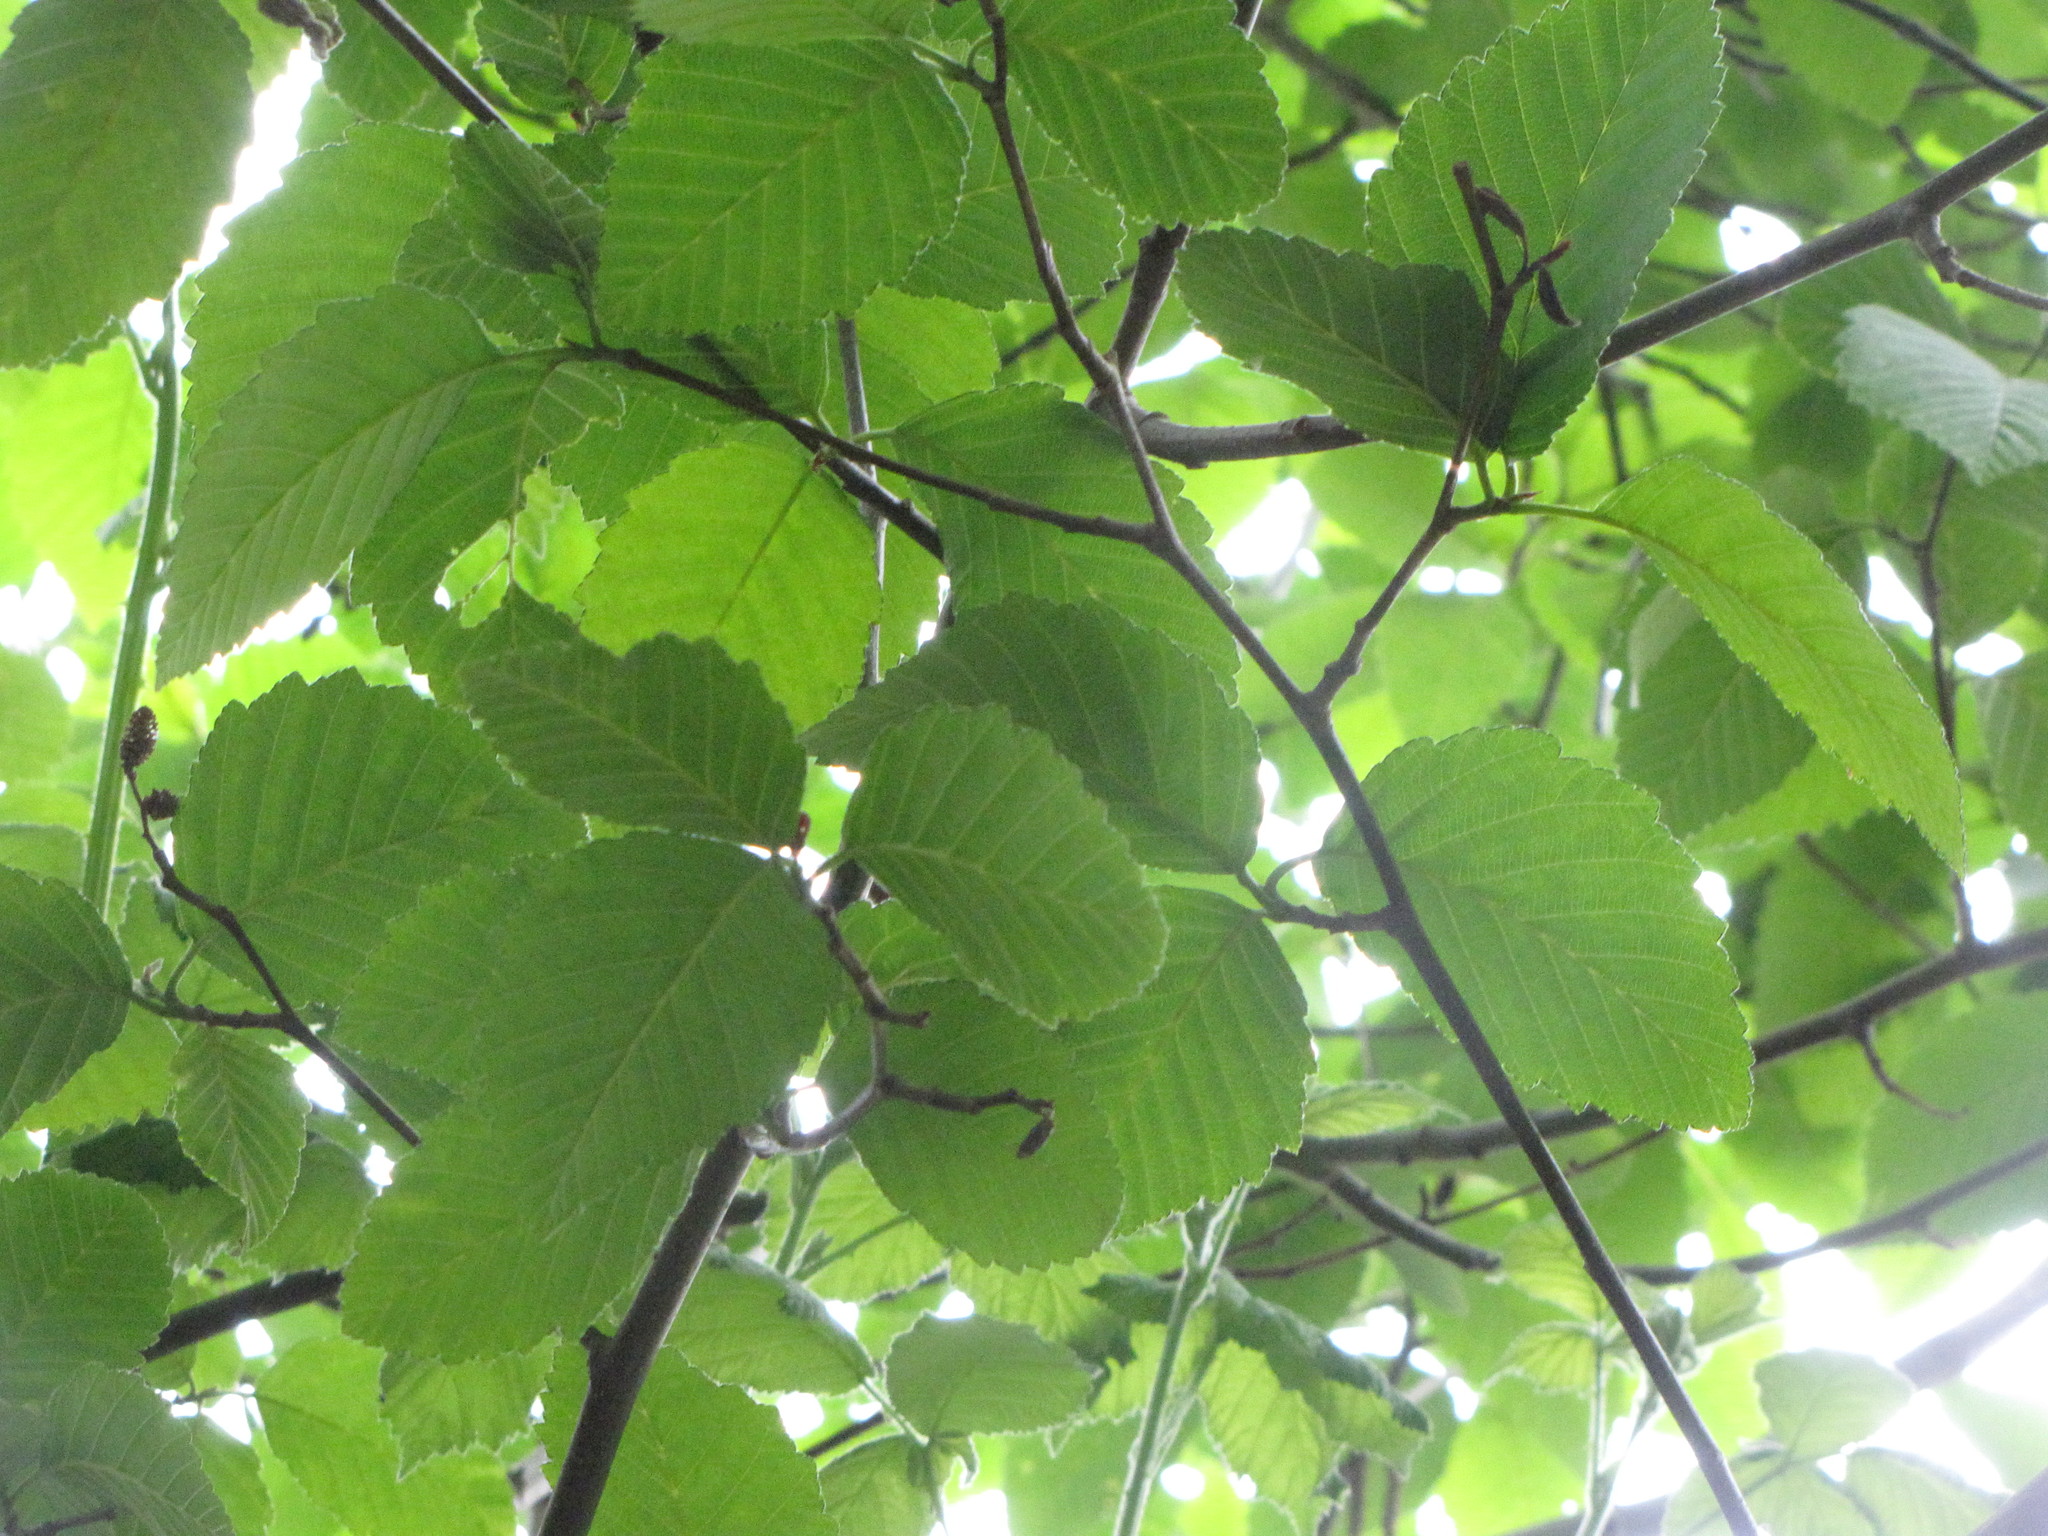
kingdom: Plantae
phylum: Tracheophyta
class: Magnoliopsida
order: Fagales
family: Betulaceae
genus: Alnus
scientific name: Alnus rubra
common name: Red alder
